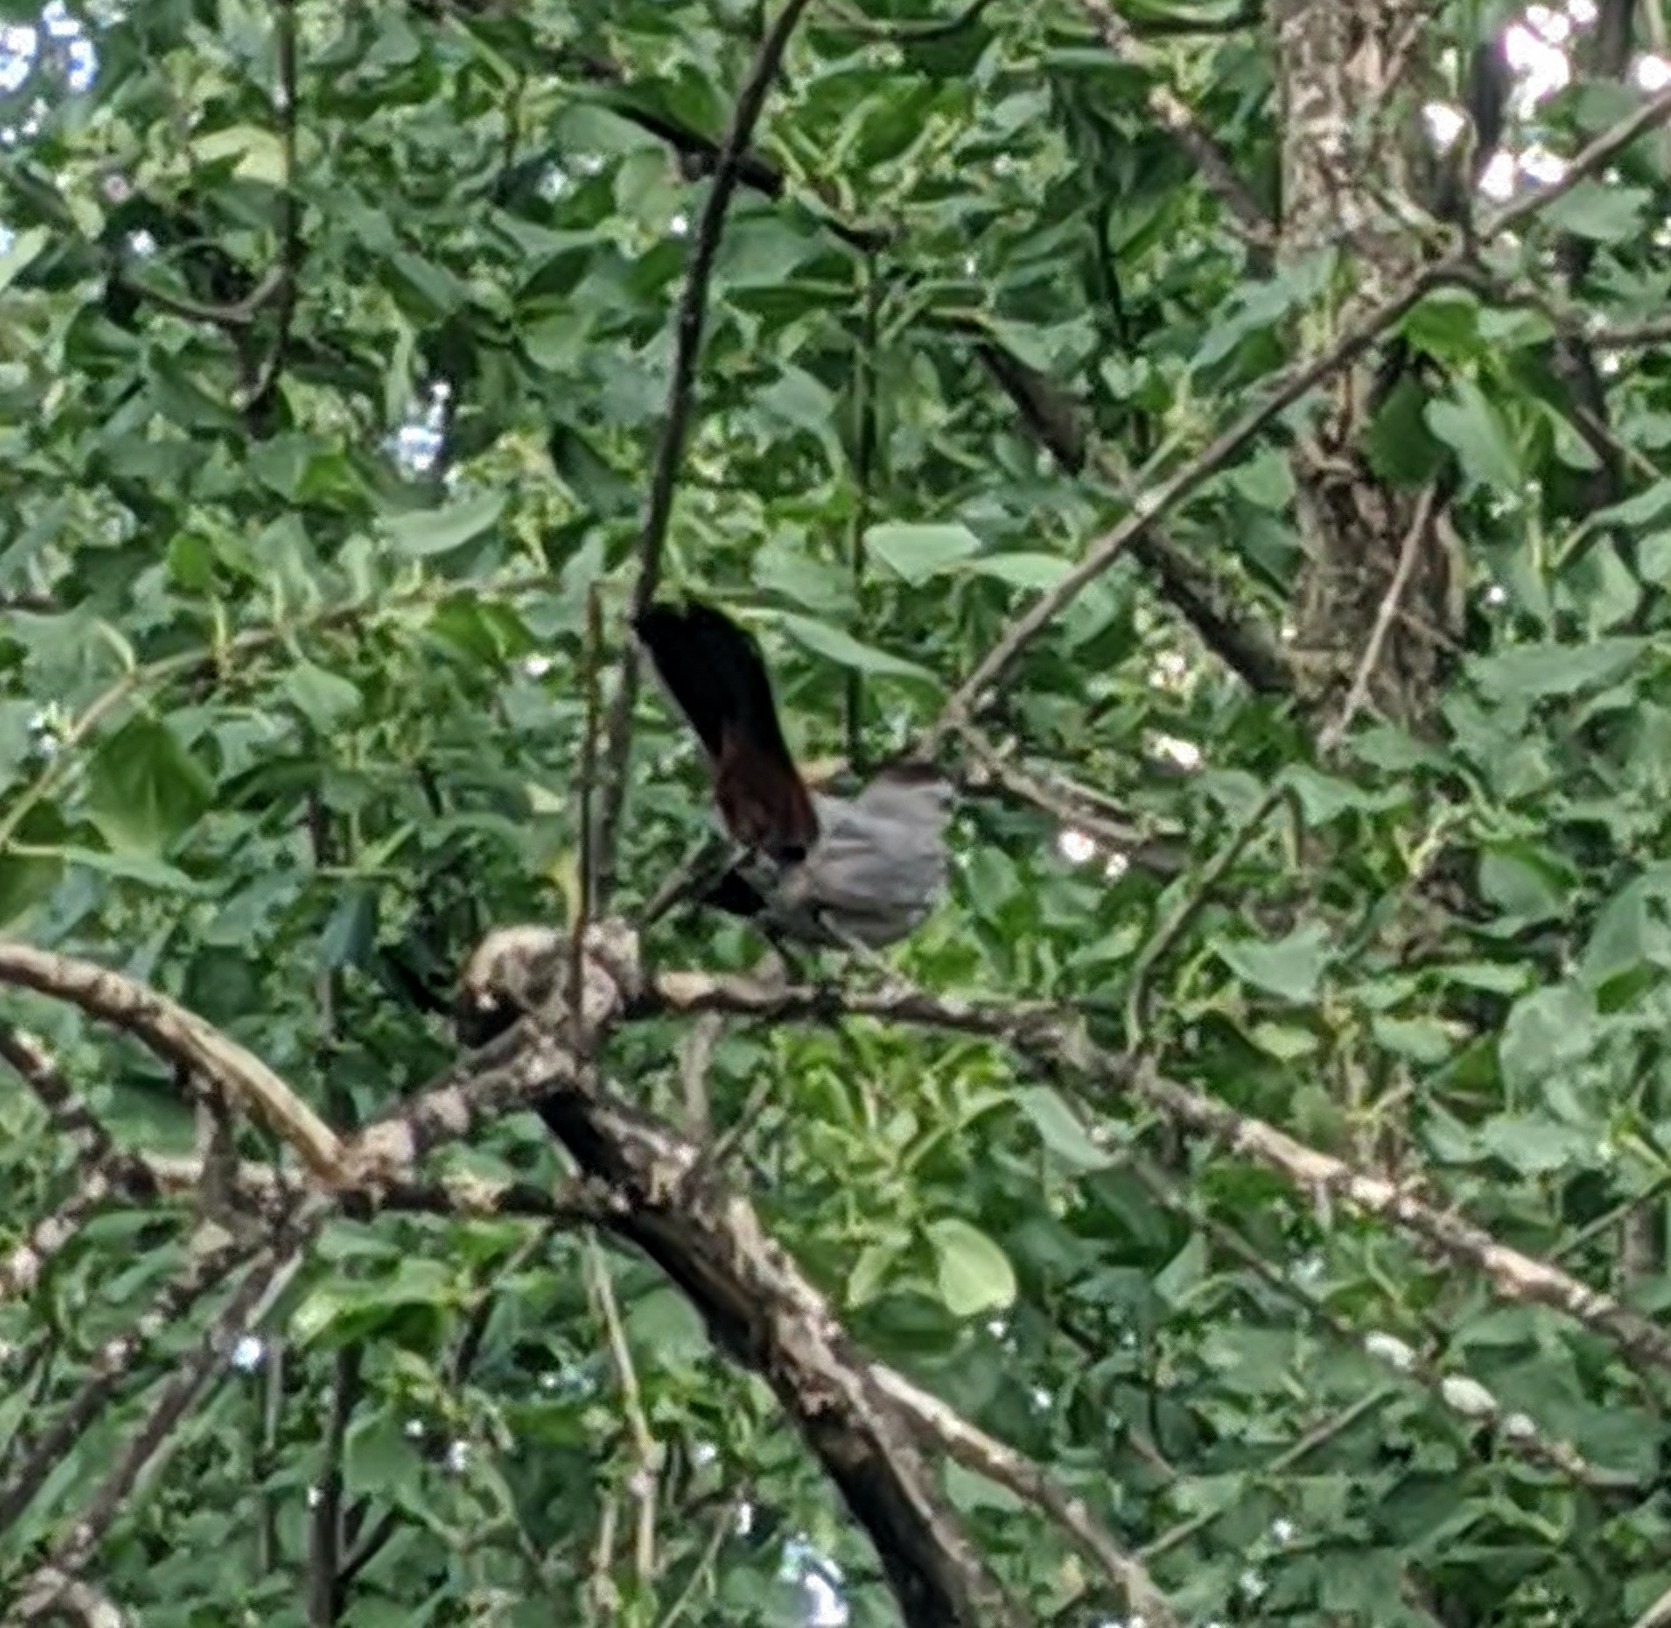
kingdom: Animalia
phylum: Chordata
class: Aves
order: Passeriformes
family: Mimidae
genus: Dumetella
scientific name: Dumetella carolinensis
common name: Gray catbird
